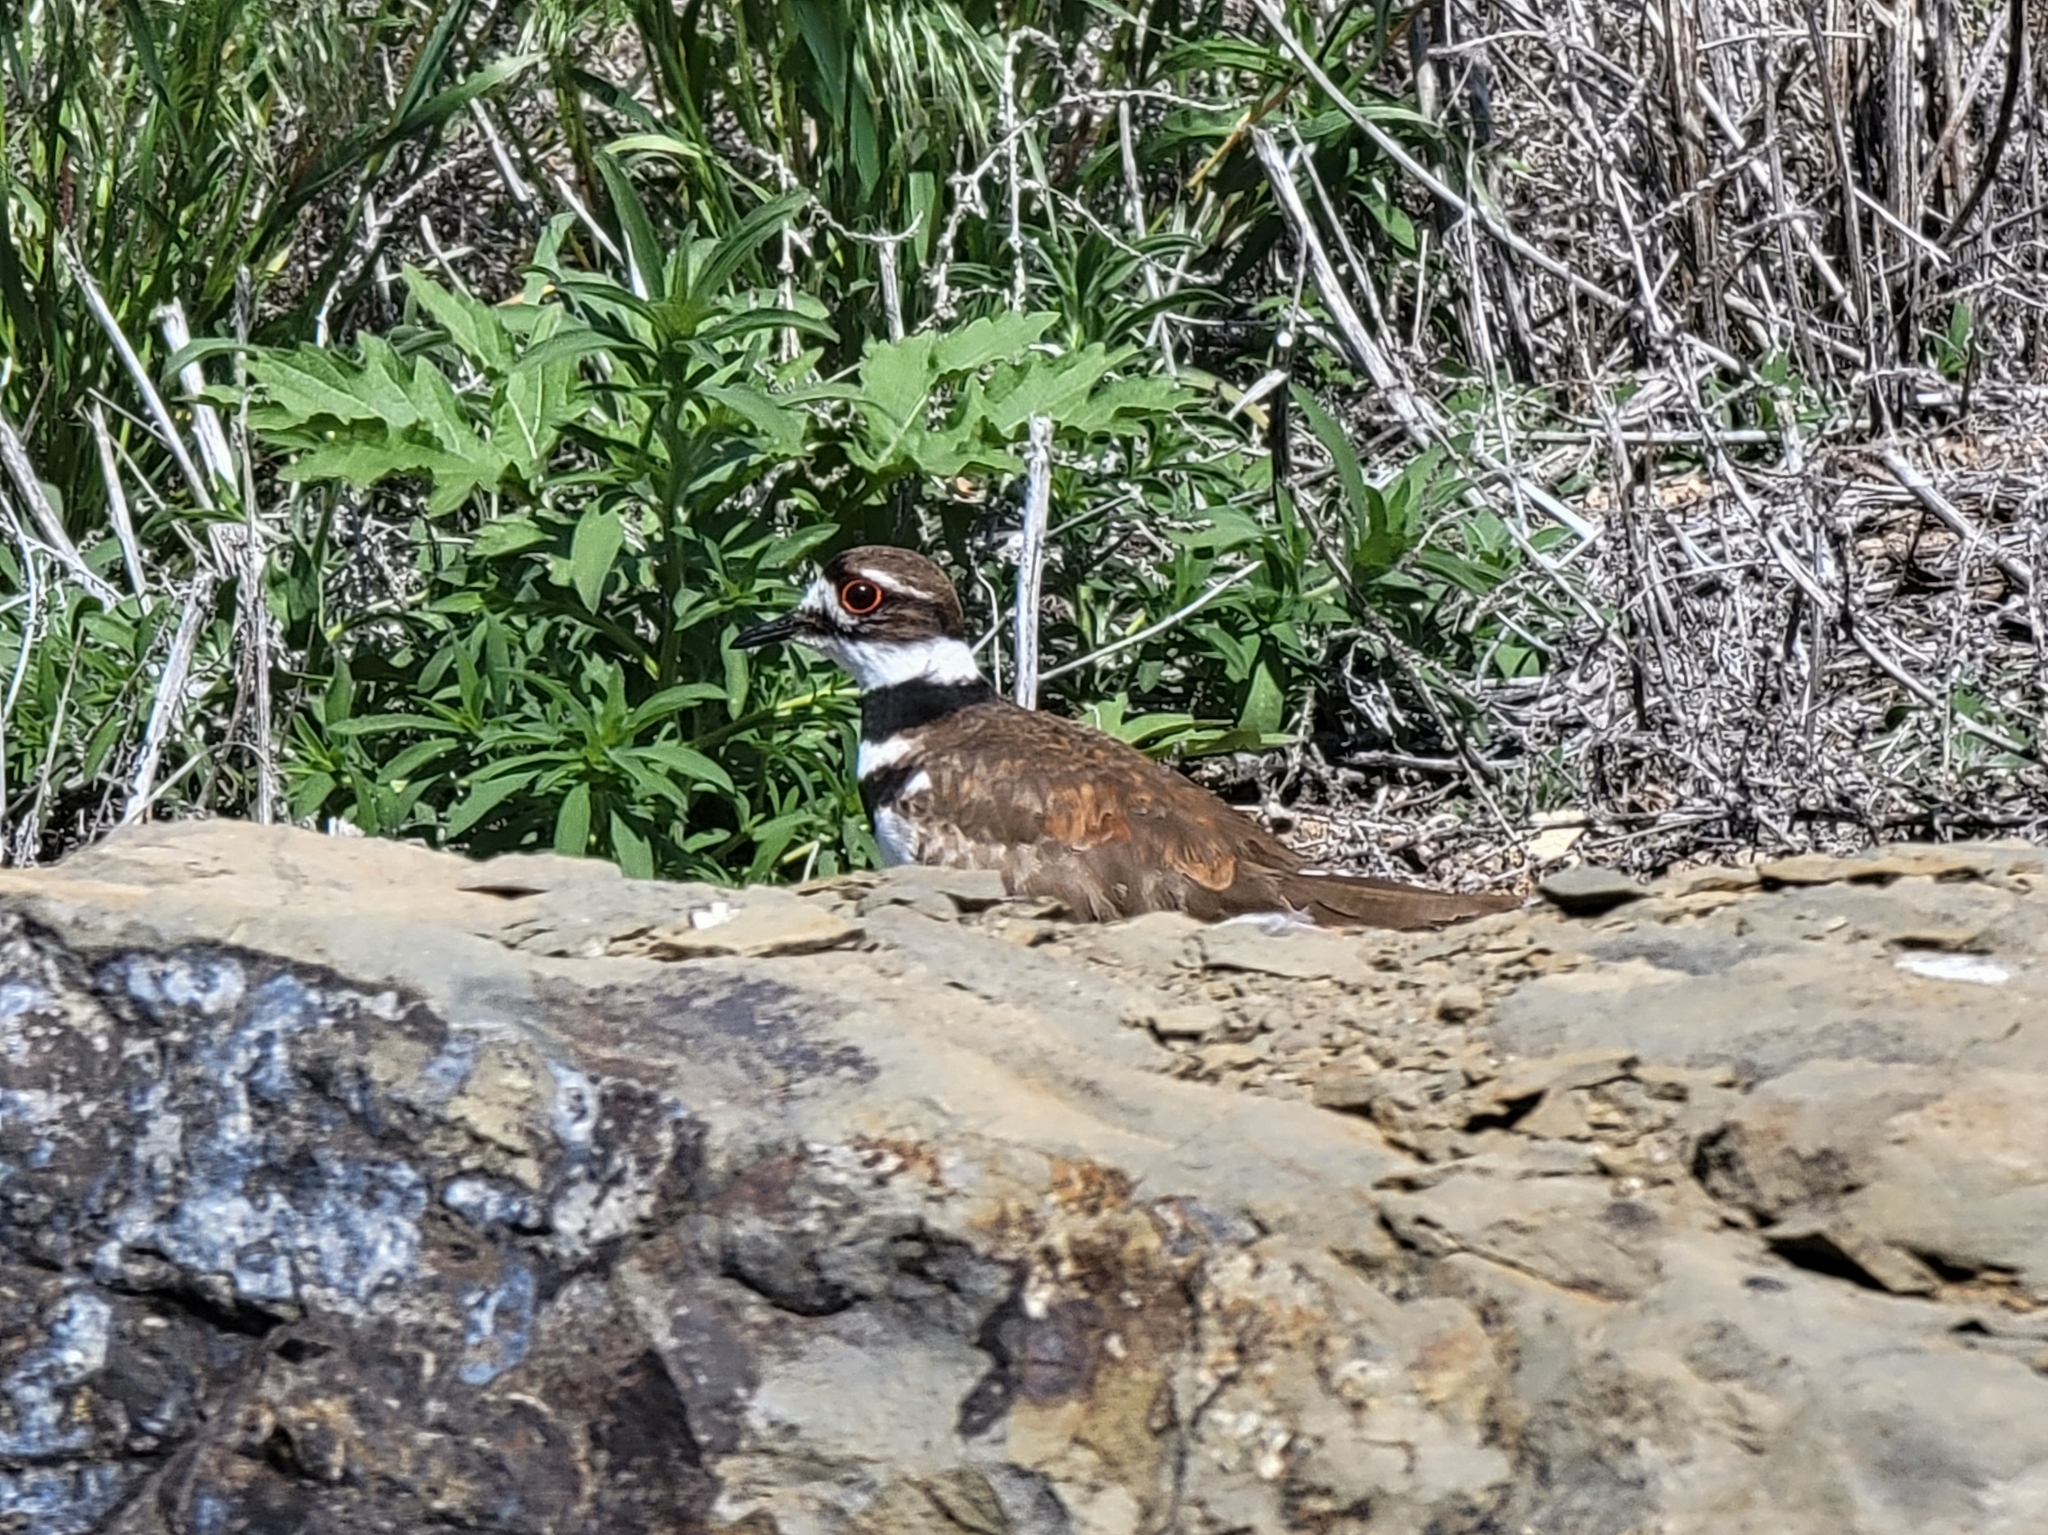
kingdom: Animalia
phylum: Chordata
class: Aves
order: Charadriiformes
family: Charadriidae
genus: Charadrius
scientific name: Charadrius vociferus
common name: Killdeer
